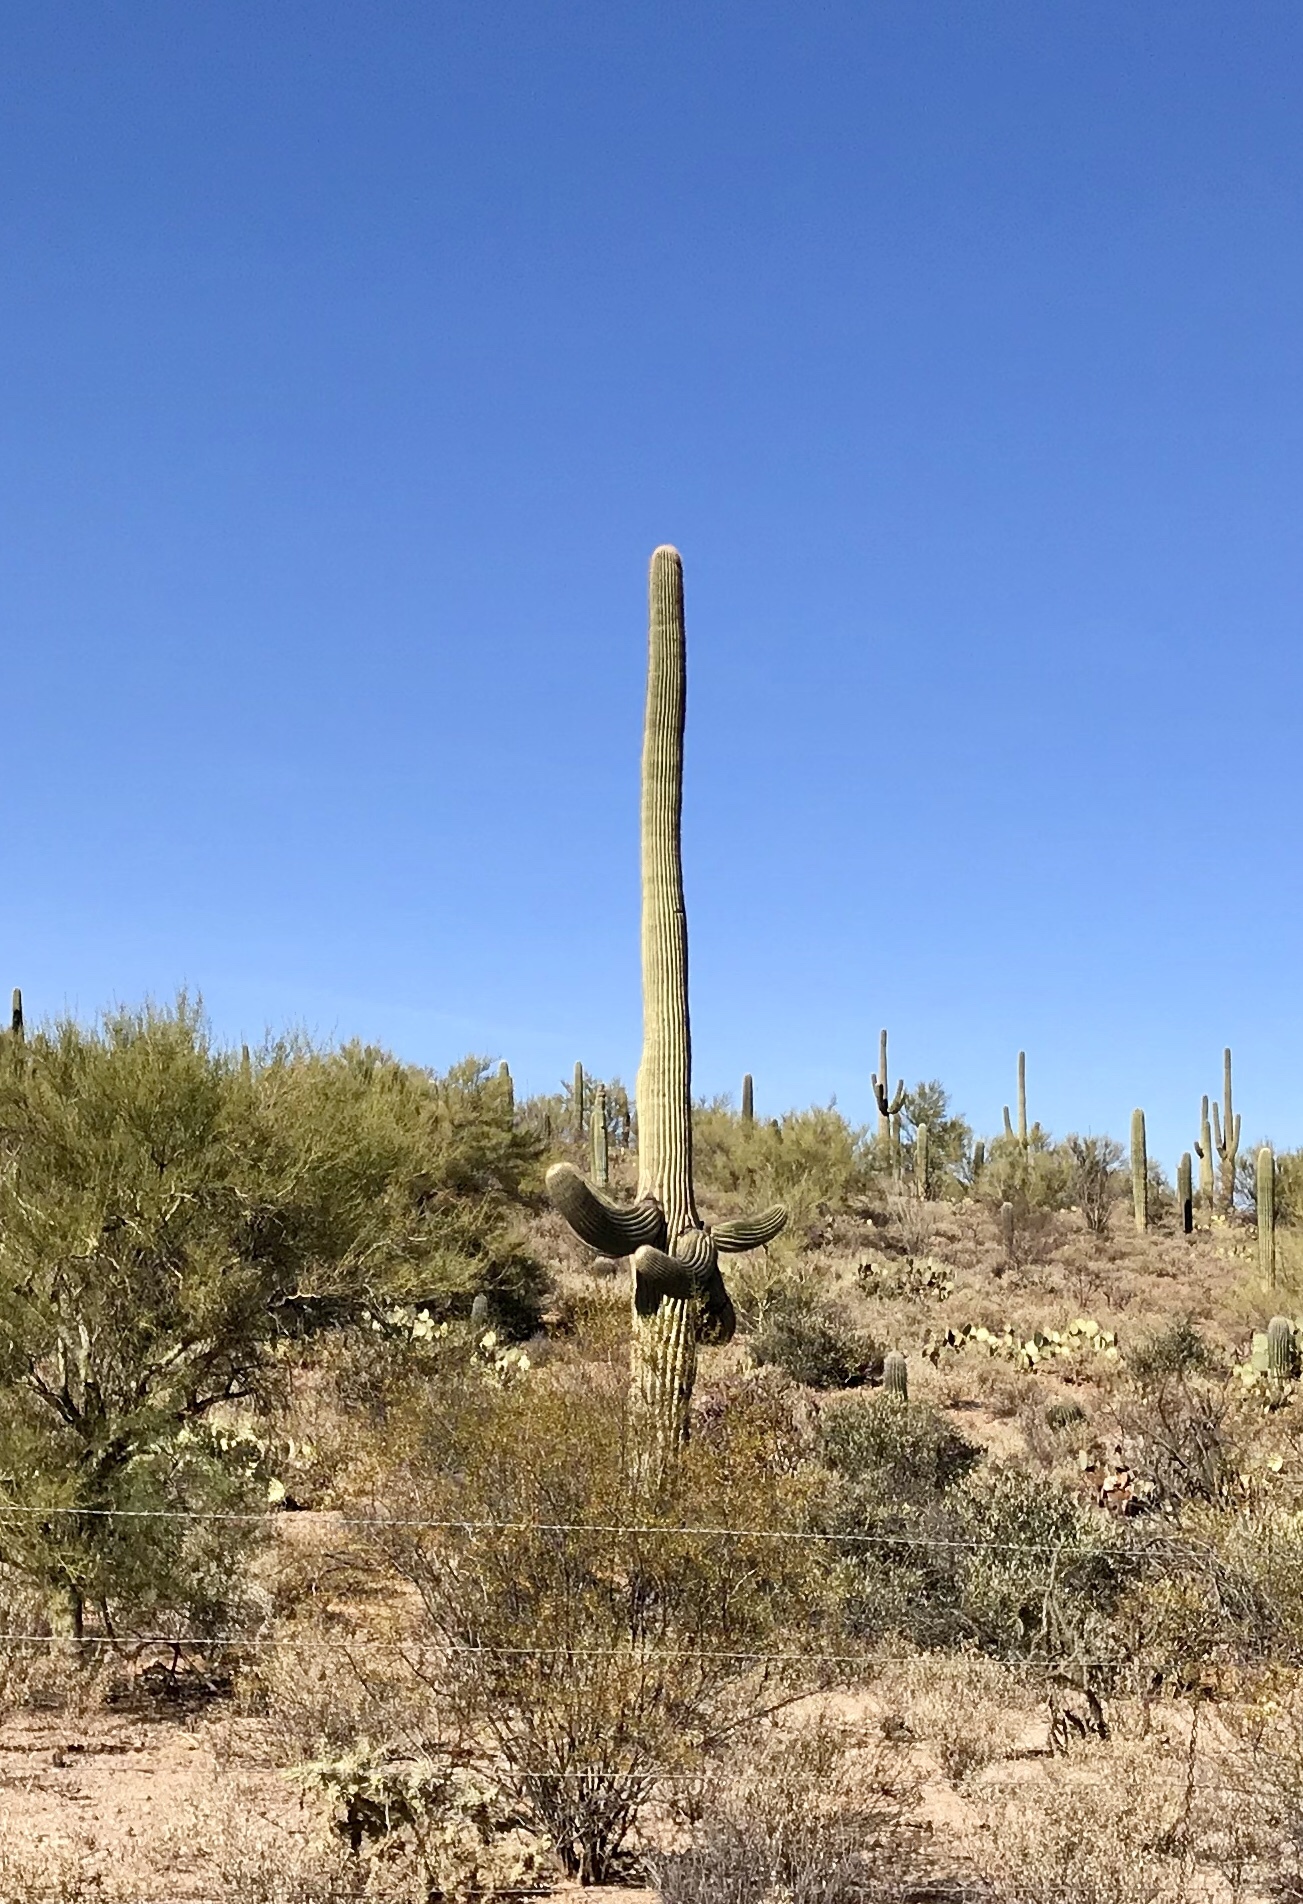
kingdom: Plantae
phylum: Tracheophyta
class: Magnoliopsida
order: Caryophyllales
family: Cactaceae
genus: Carnegiea
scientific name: Carnegiea gigantea
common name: Saguaro
